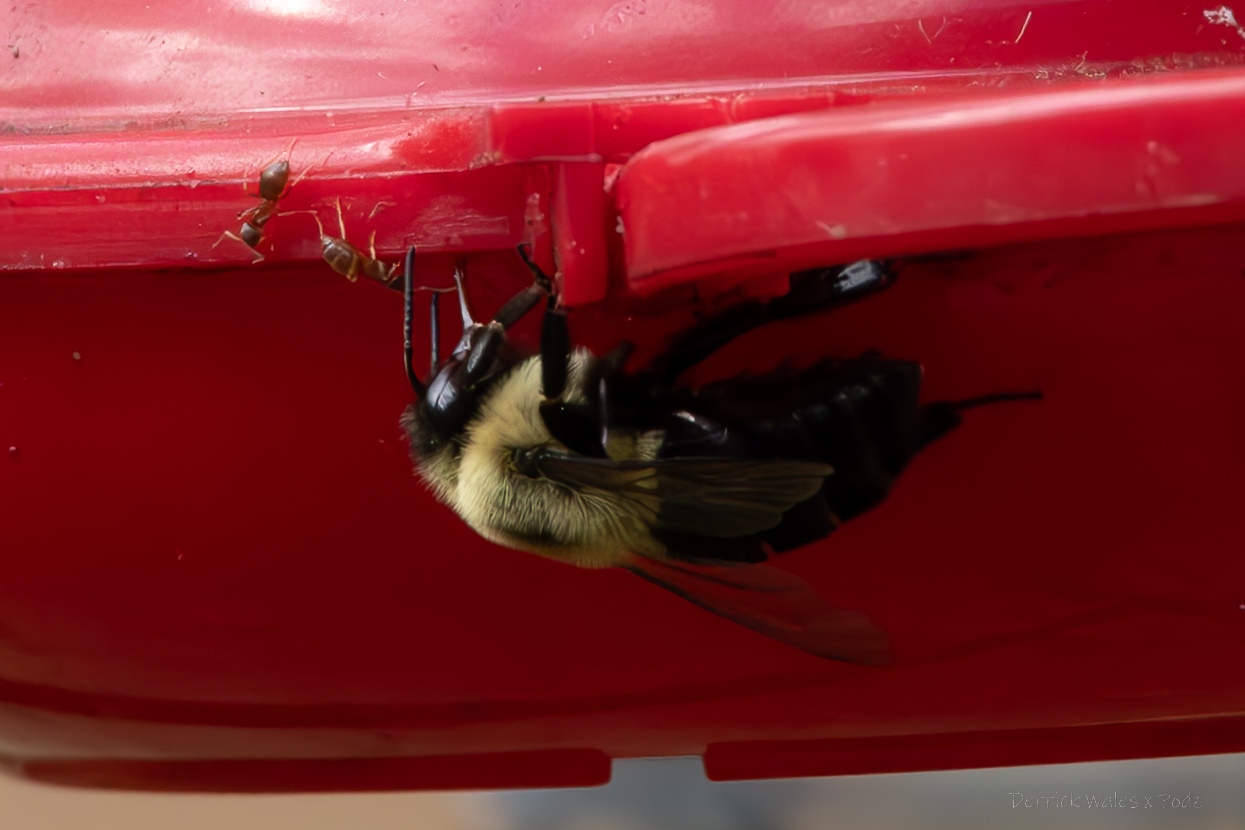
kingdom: Animalia
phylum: Arthropoda
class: Insecta
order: Hymenoptera
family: Formicidae
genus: Lasius
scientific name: Lasius neoniger
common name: Turfgrass ant
